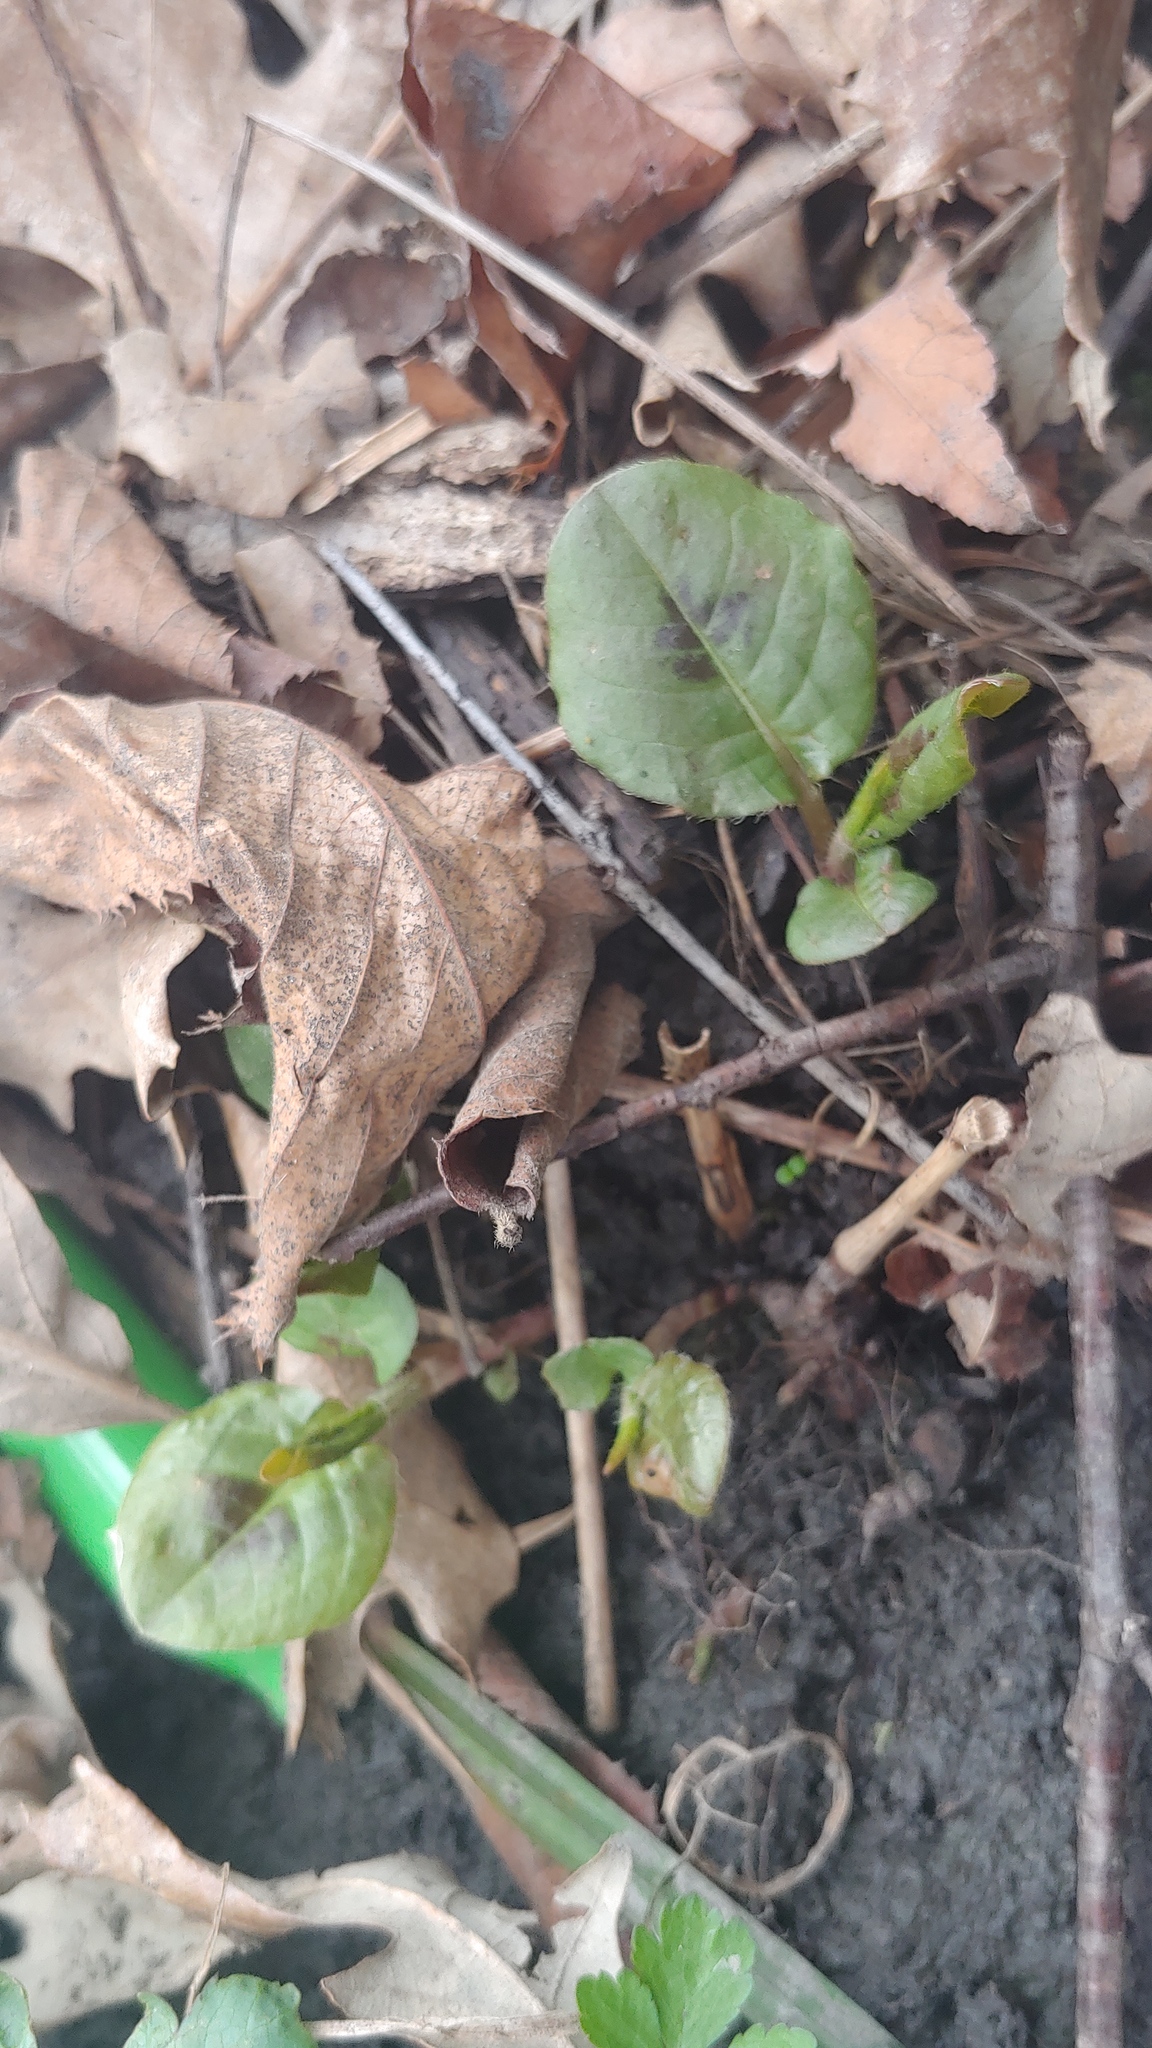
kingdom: Plantae
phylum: Tracheophyta
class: Magnoliopsida
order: Caryophyllales
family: Polygonaceae
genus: Persicaria
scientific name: Persicaria virginiana
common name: Jumpseed
